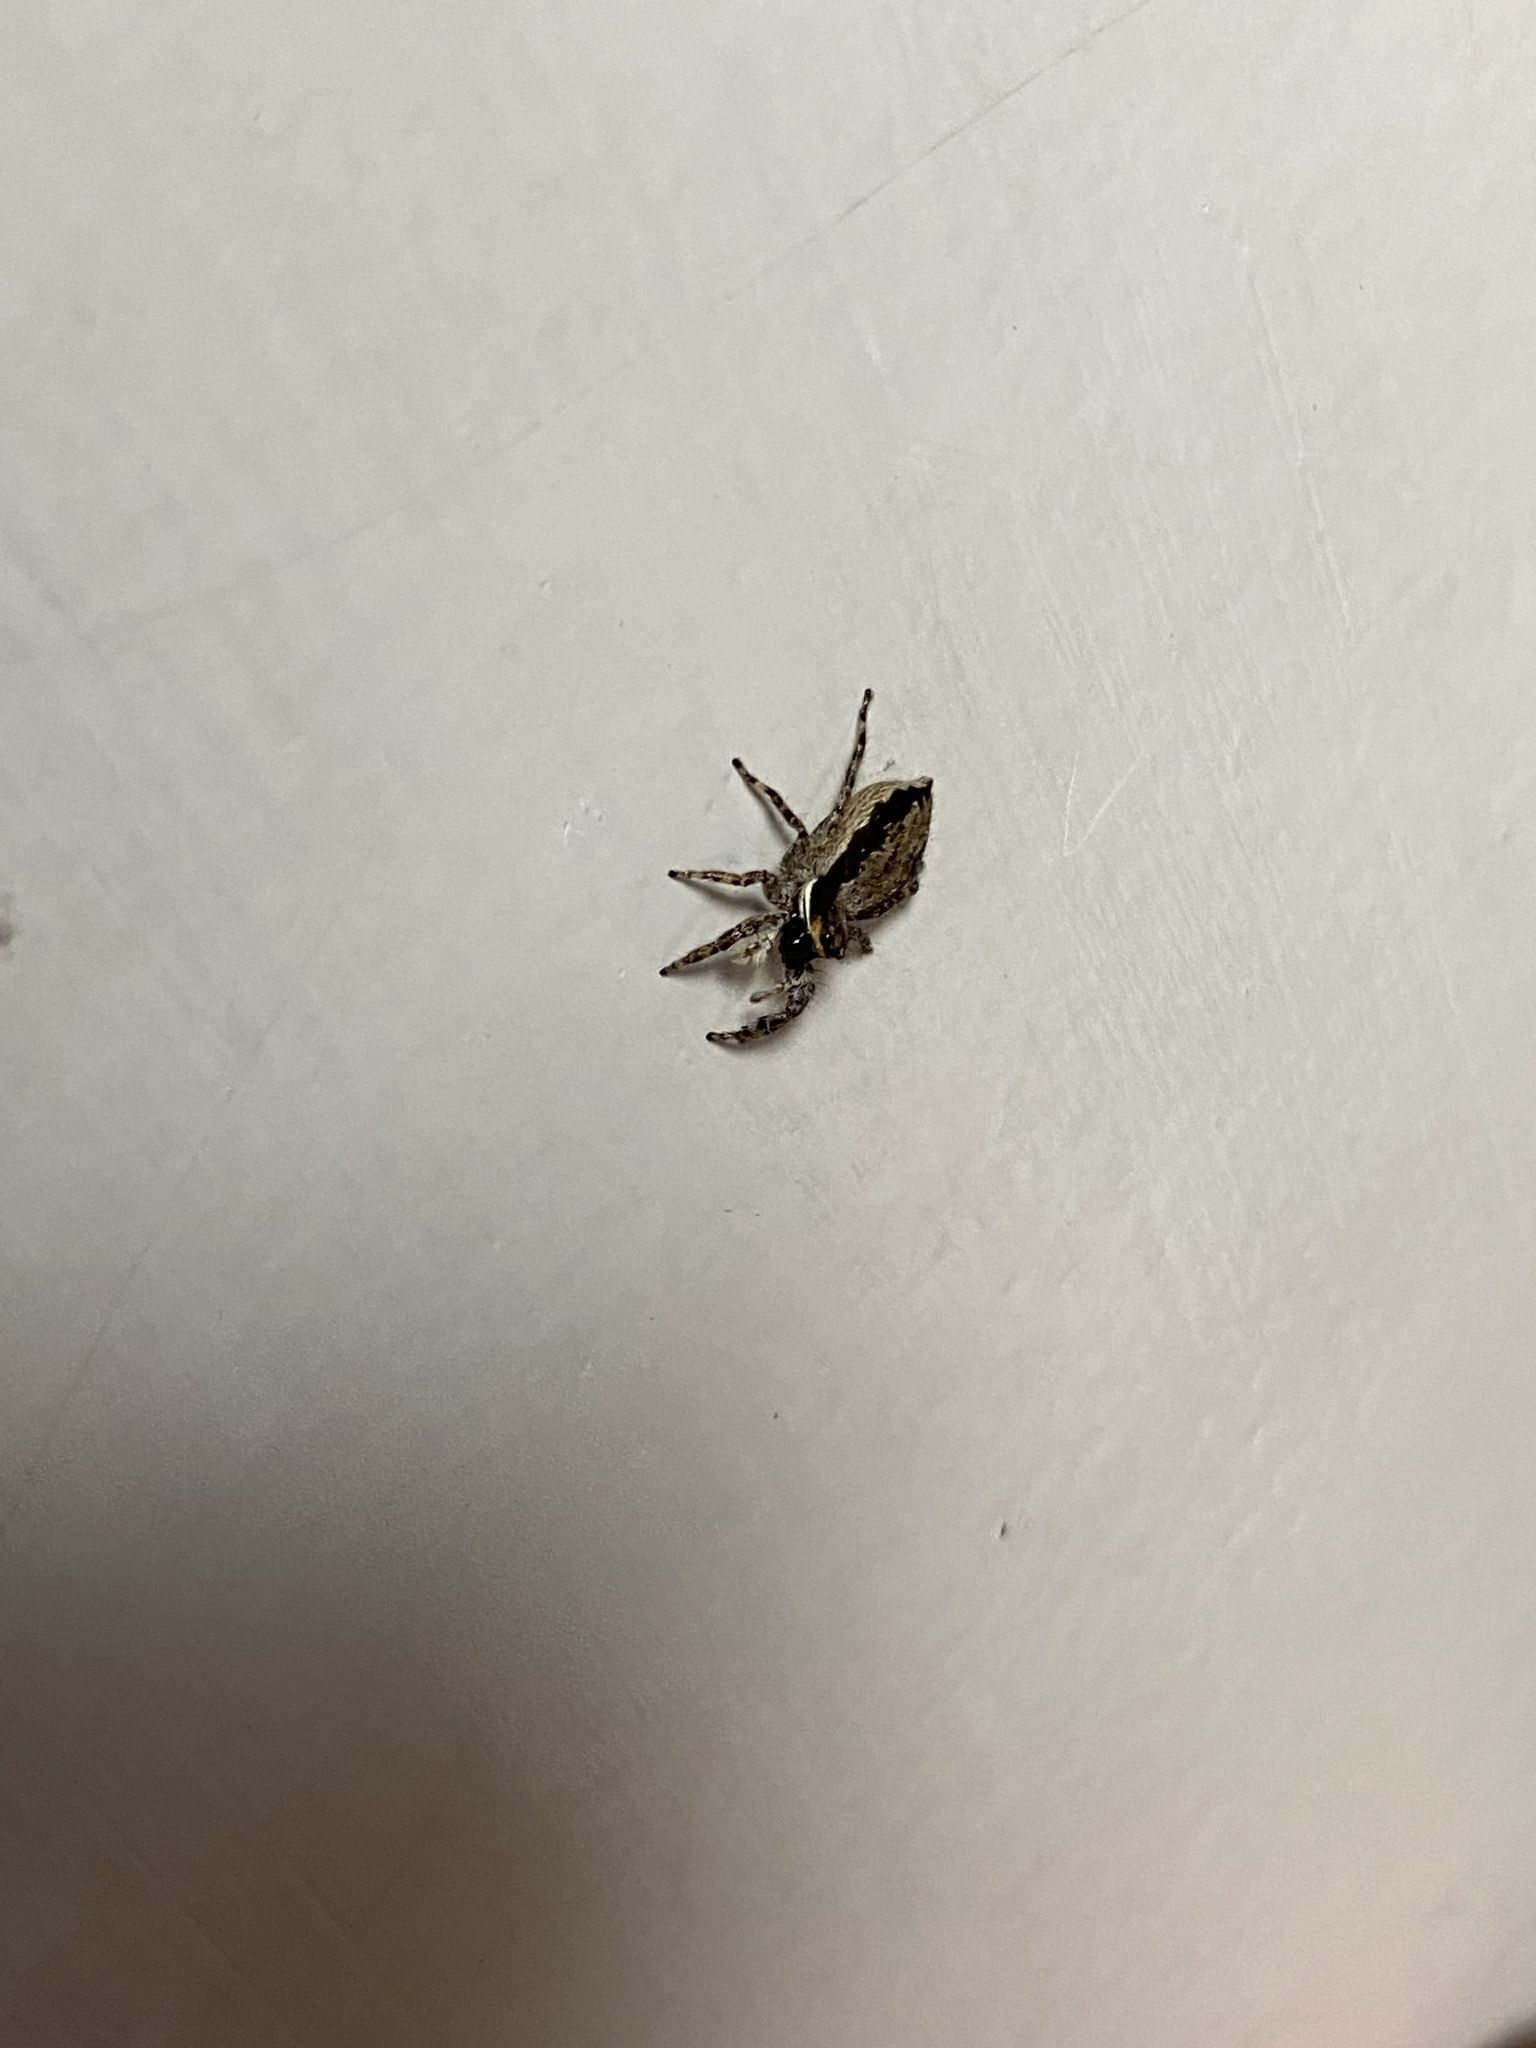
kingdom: Animalia
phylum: Arthropoda
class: Arachnida
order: Araneae
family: Salticidae
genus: Menemerus
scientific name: Menemerus bivittatus
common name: Gray wall jumper
